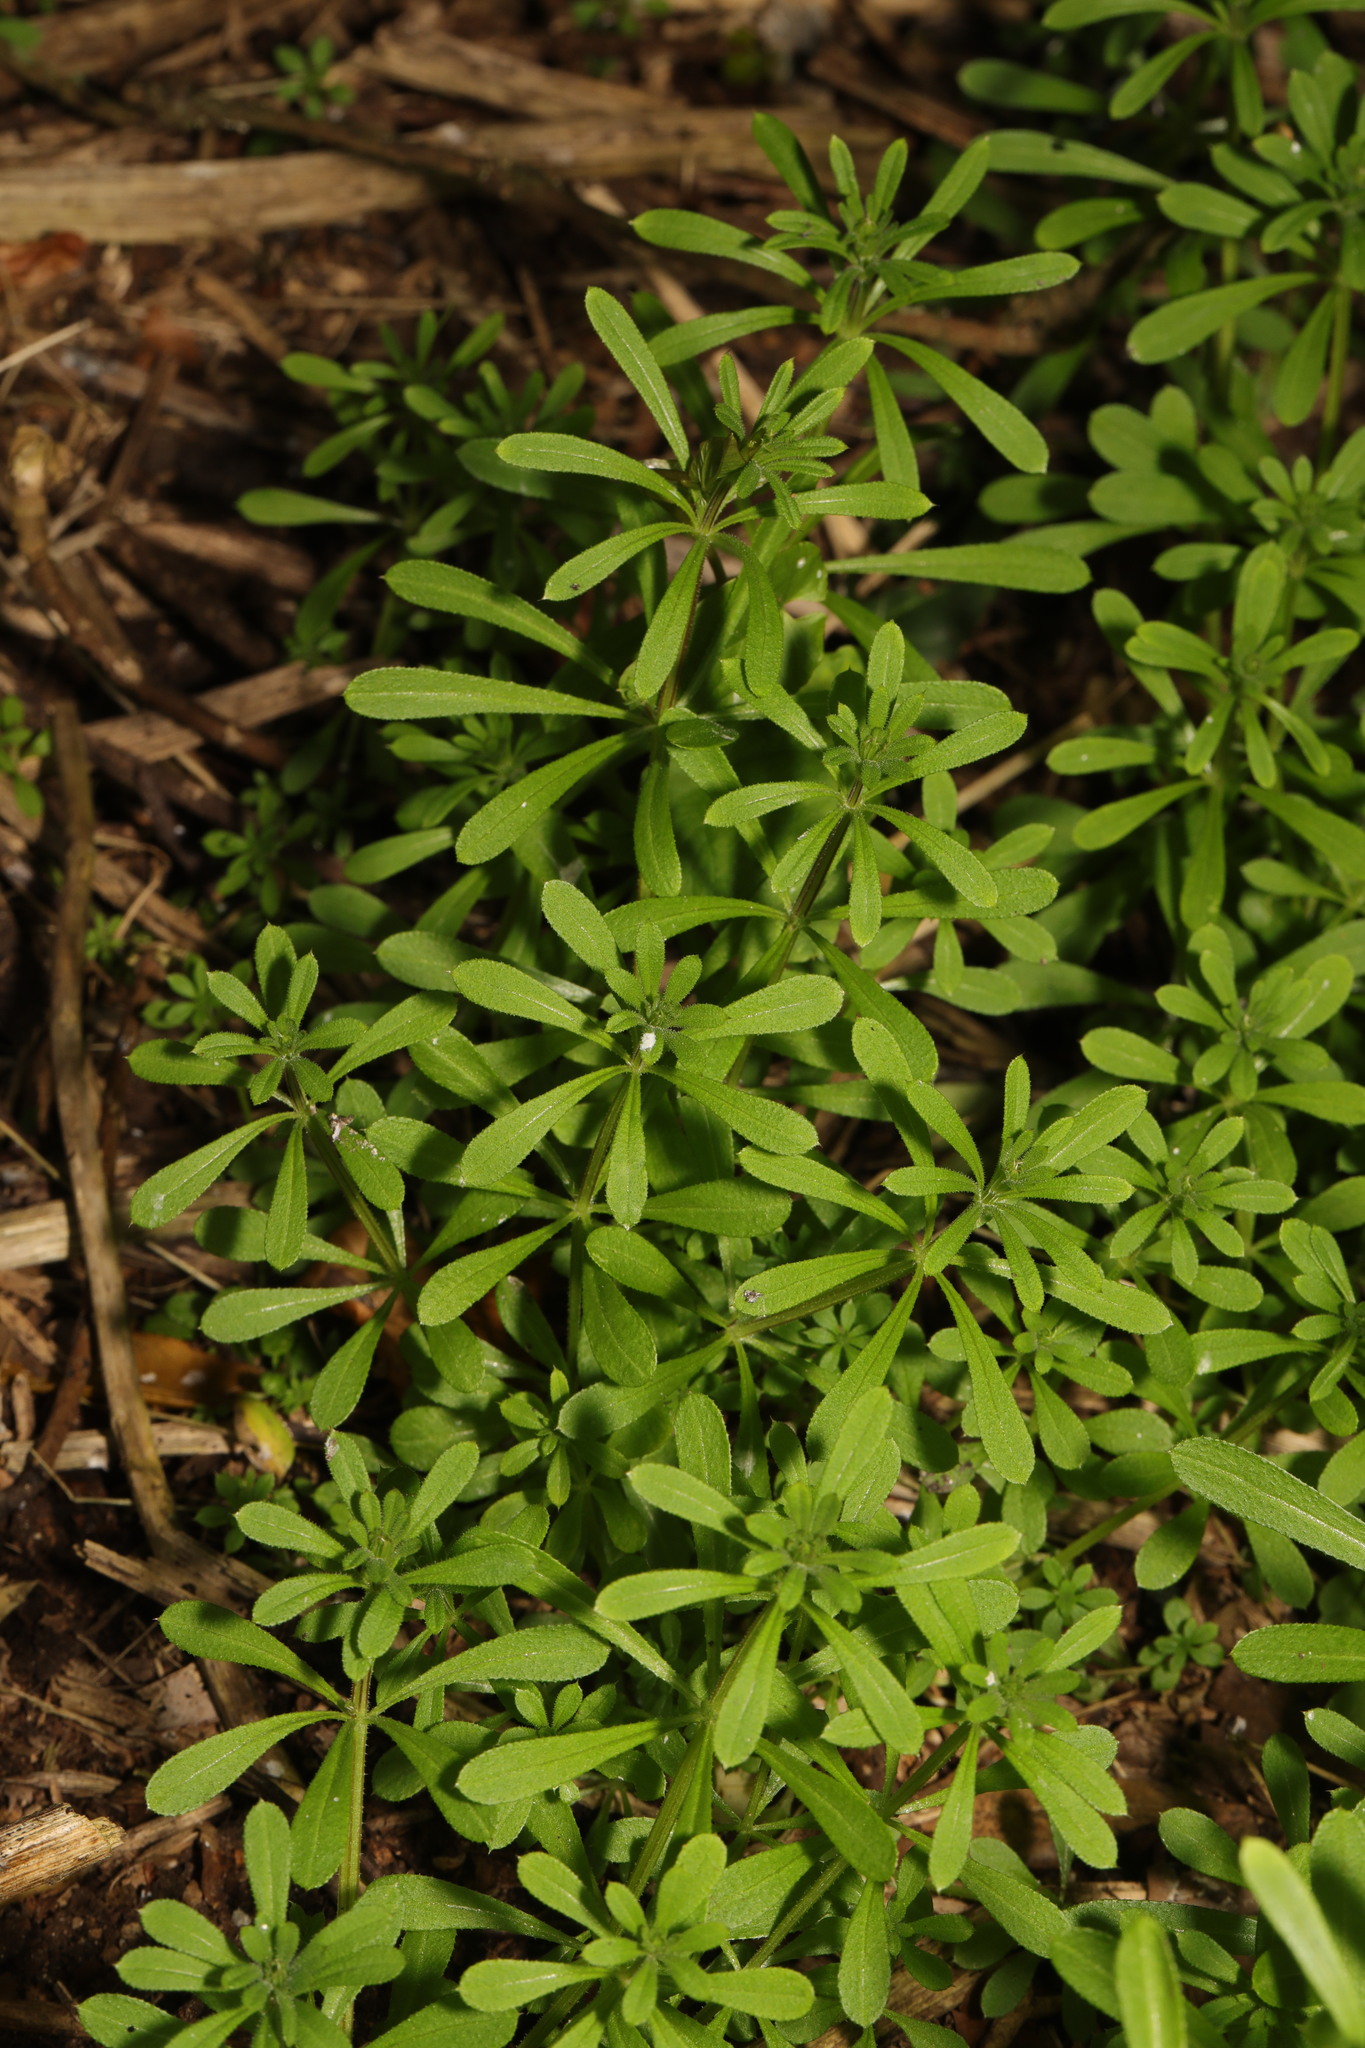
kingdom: Plantae
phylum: Tracheophyta
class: Magnoliopsida
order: Gentianales
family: Rubiaceae
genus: Galium
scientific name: Galium aparine
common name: Cleavers
